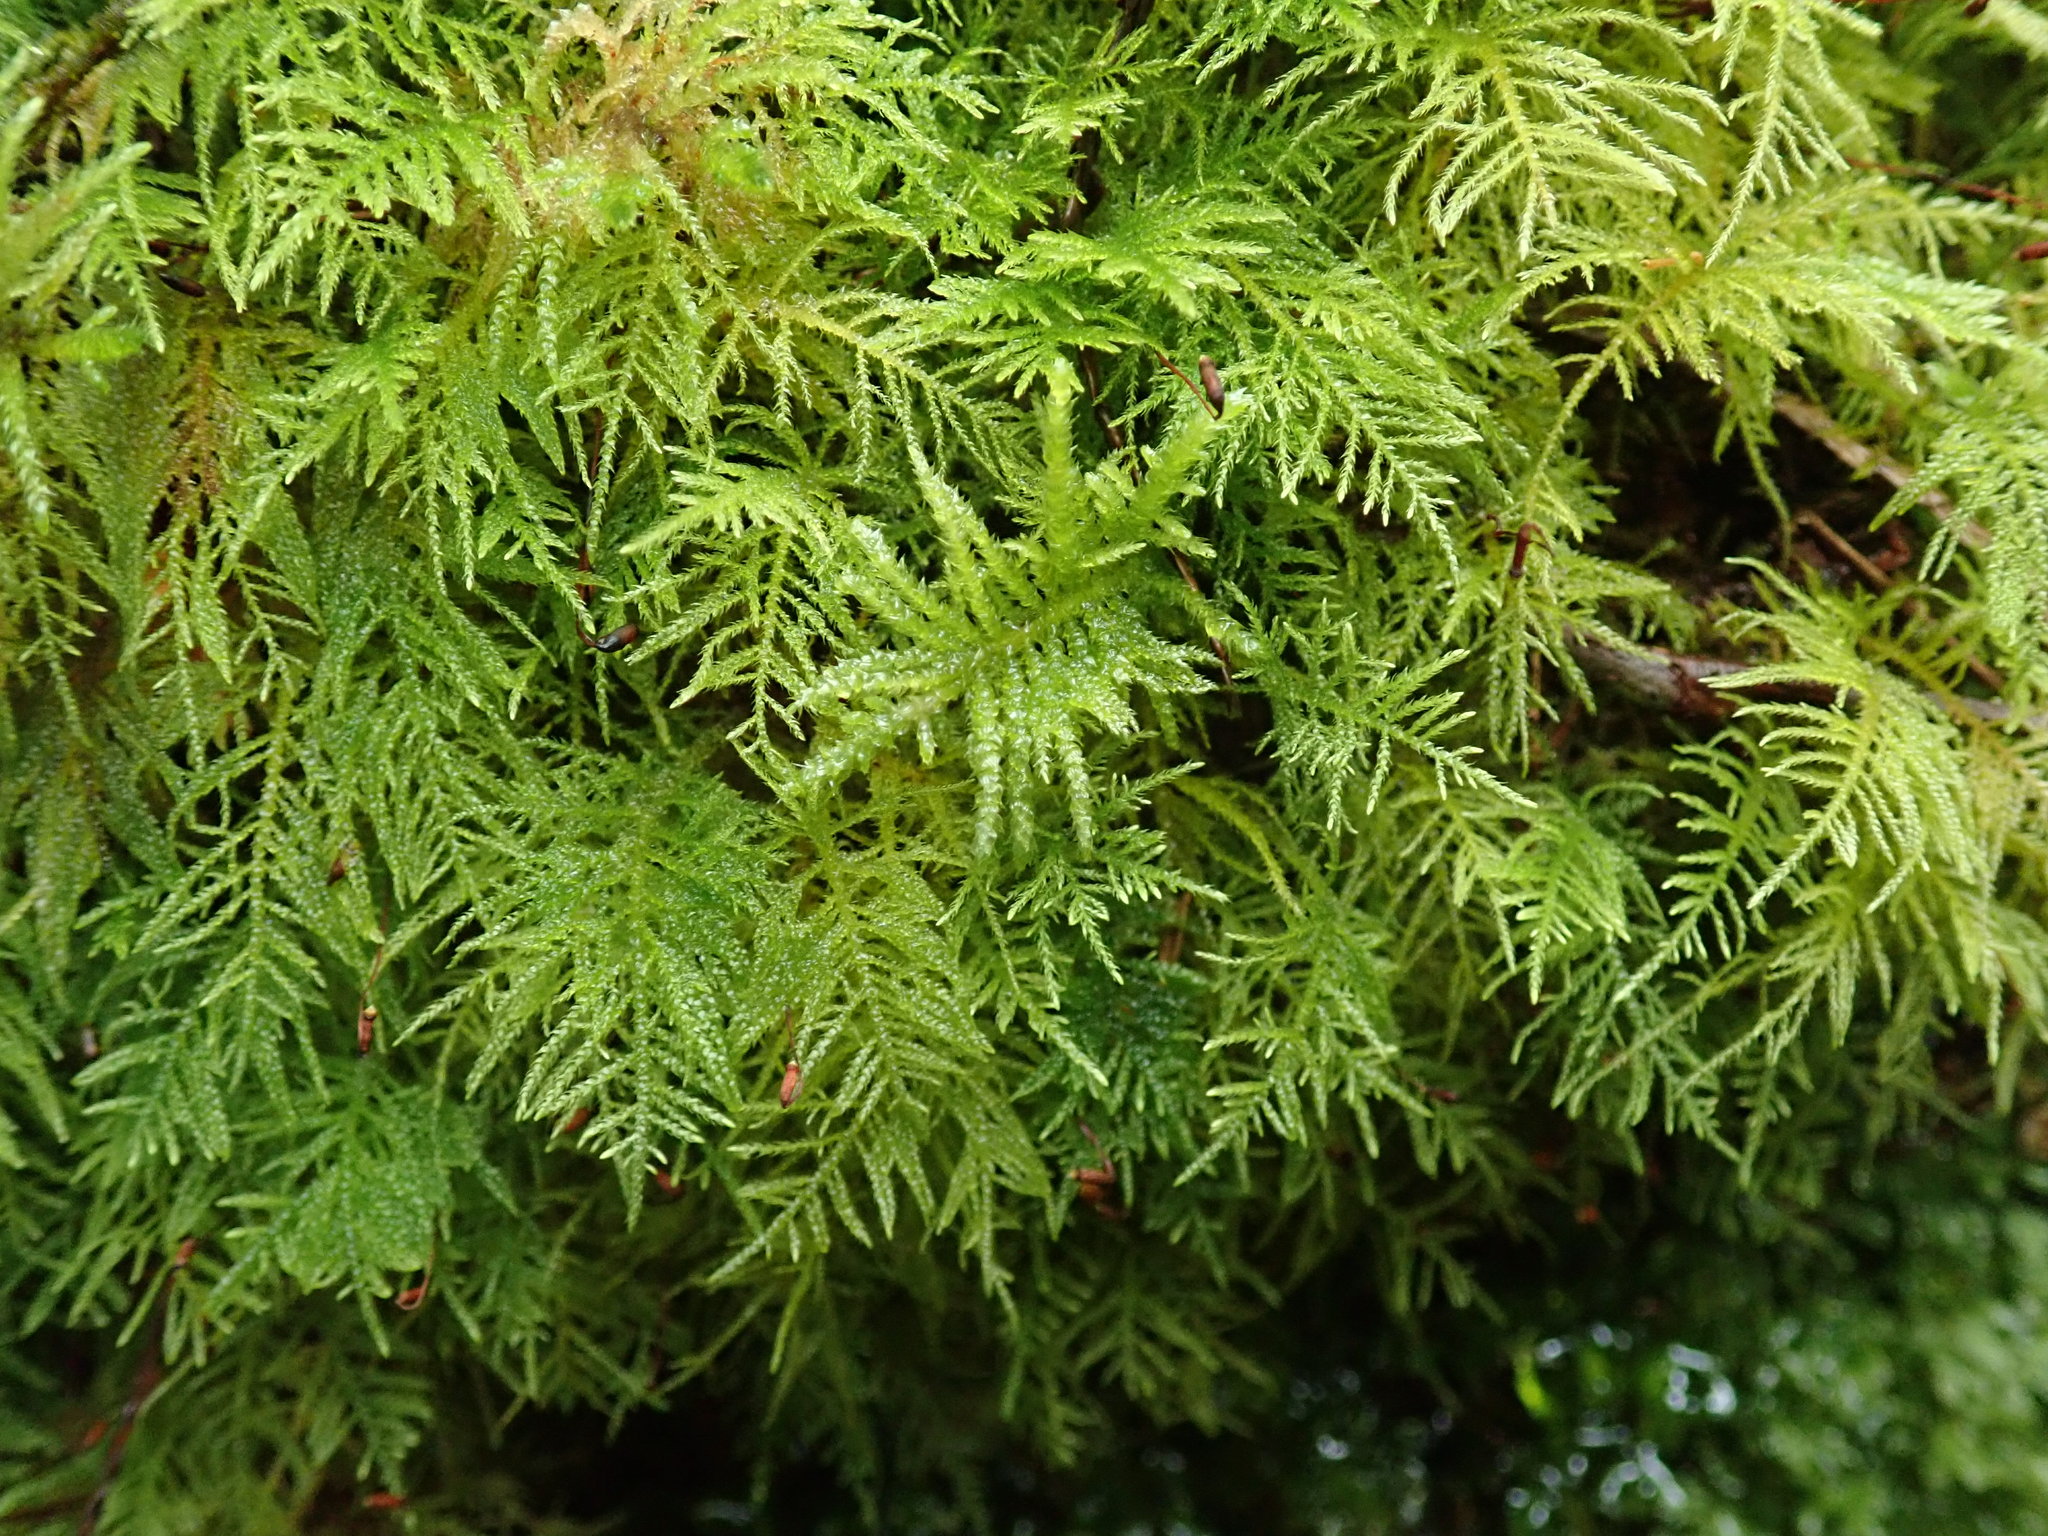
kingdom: Plantae
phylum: Bryophyta
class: Bryopsida
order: Hypnales
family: Brachytheciaceae
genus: Kindbergia
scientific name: Kindbergia praelonga
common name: Slender beaked moss
